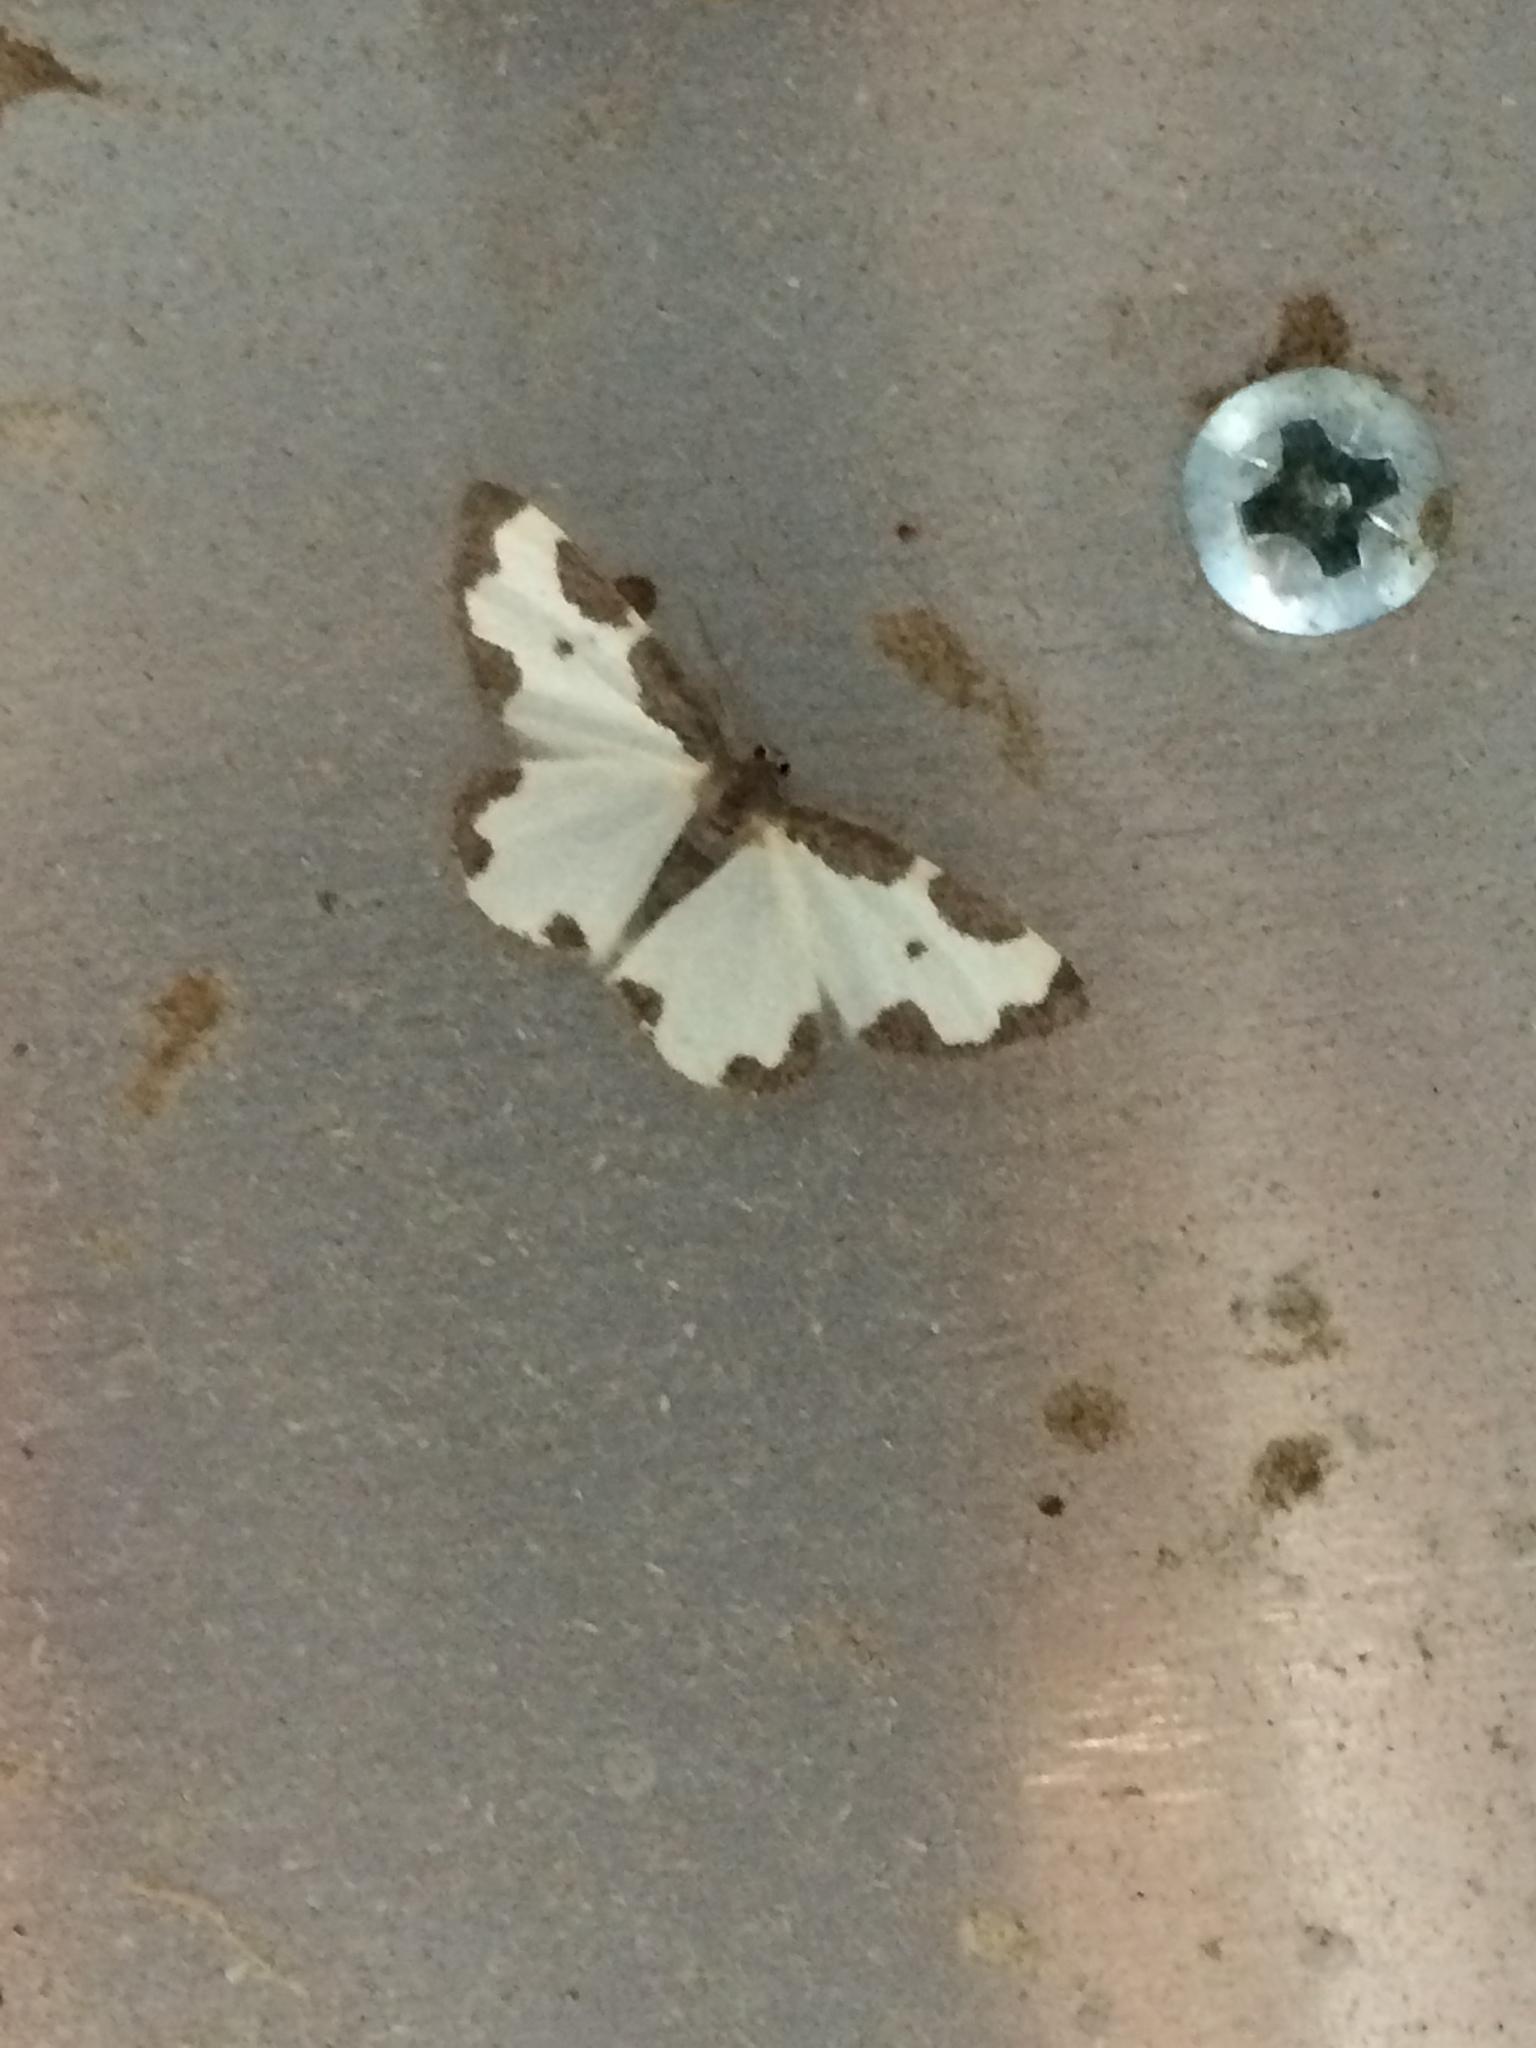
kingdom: Animalia
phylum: Arthropoda
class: Insecta
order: Lepidoptera
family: Geometridae
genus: Lomaspilis
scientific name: Lomaspilis marginata
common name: Clouded border
